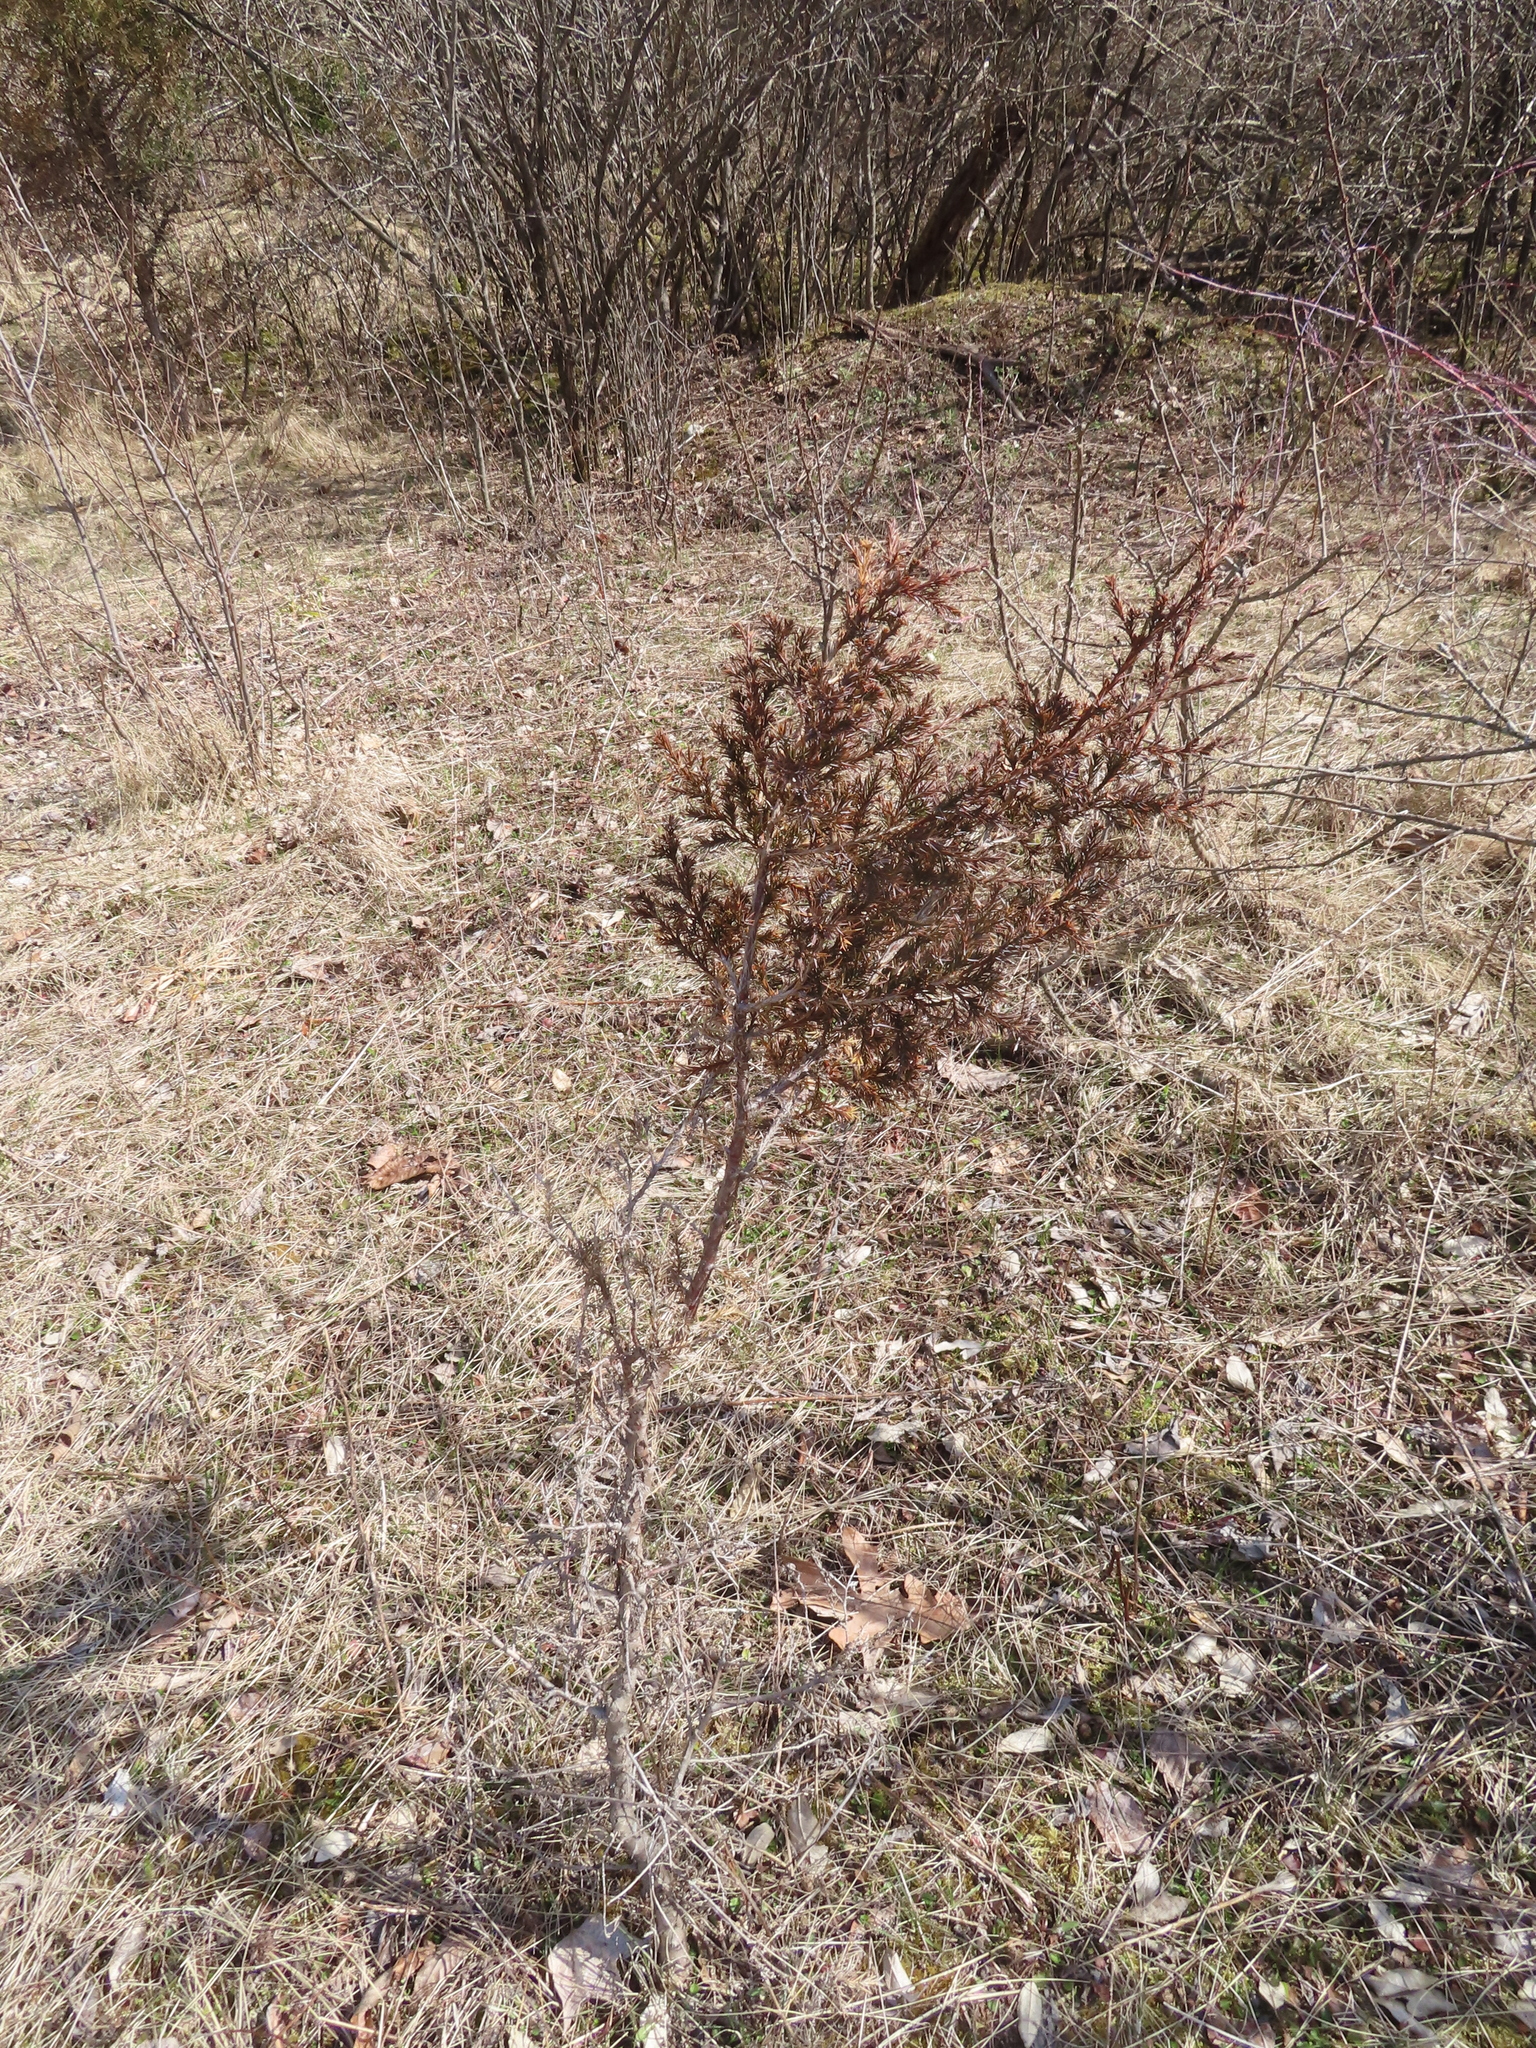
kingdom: Plantae
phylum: Tracheophyta
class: Pinopsida
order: Pinales
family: Cupressaceae
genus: Juniperus
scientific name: Juniperus virginiana
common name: Red juniper
